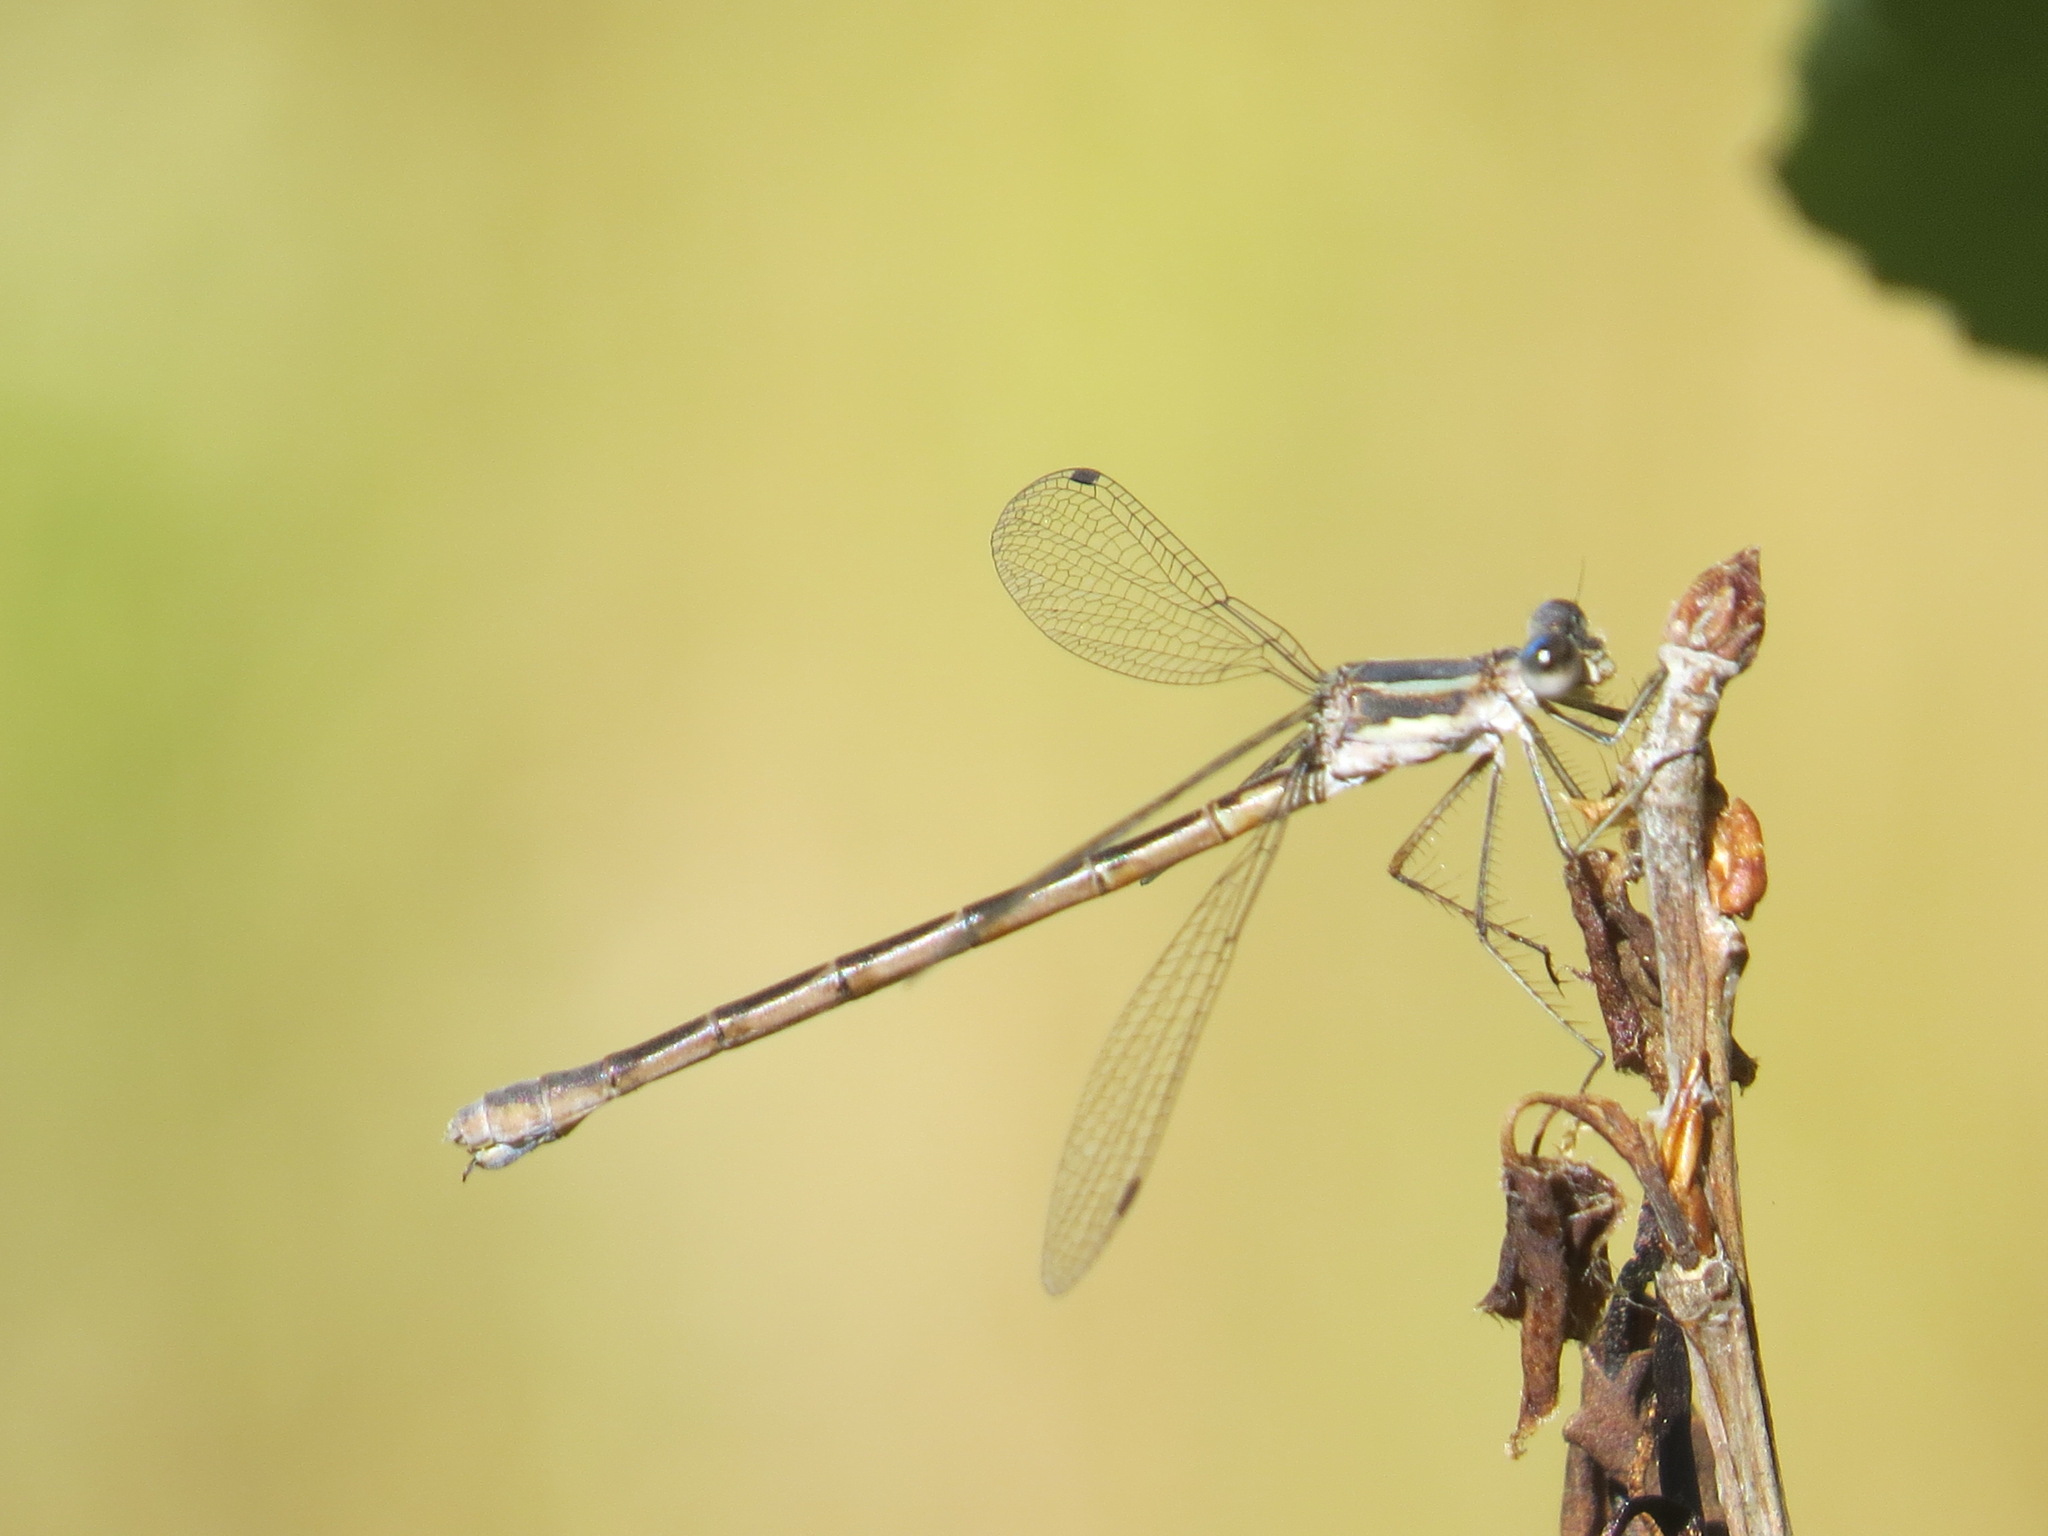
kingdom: Animalia
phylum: Arthropoda
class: Insecta
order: Odonata
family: Lestidae
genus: Lestes
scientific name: Lestes disjunctus
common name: Northern spreadwing
